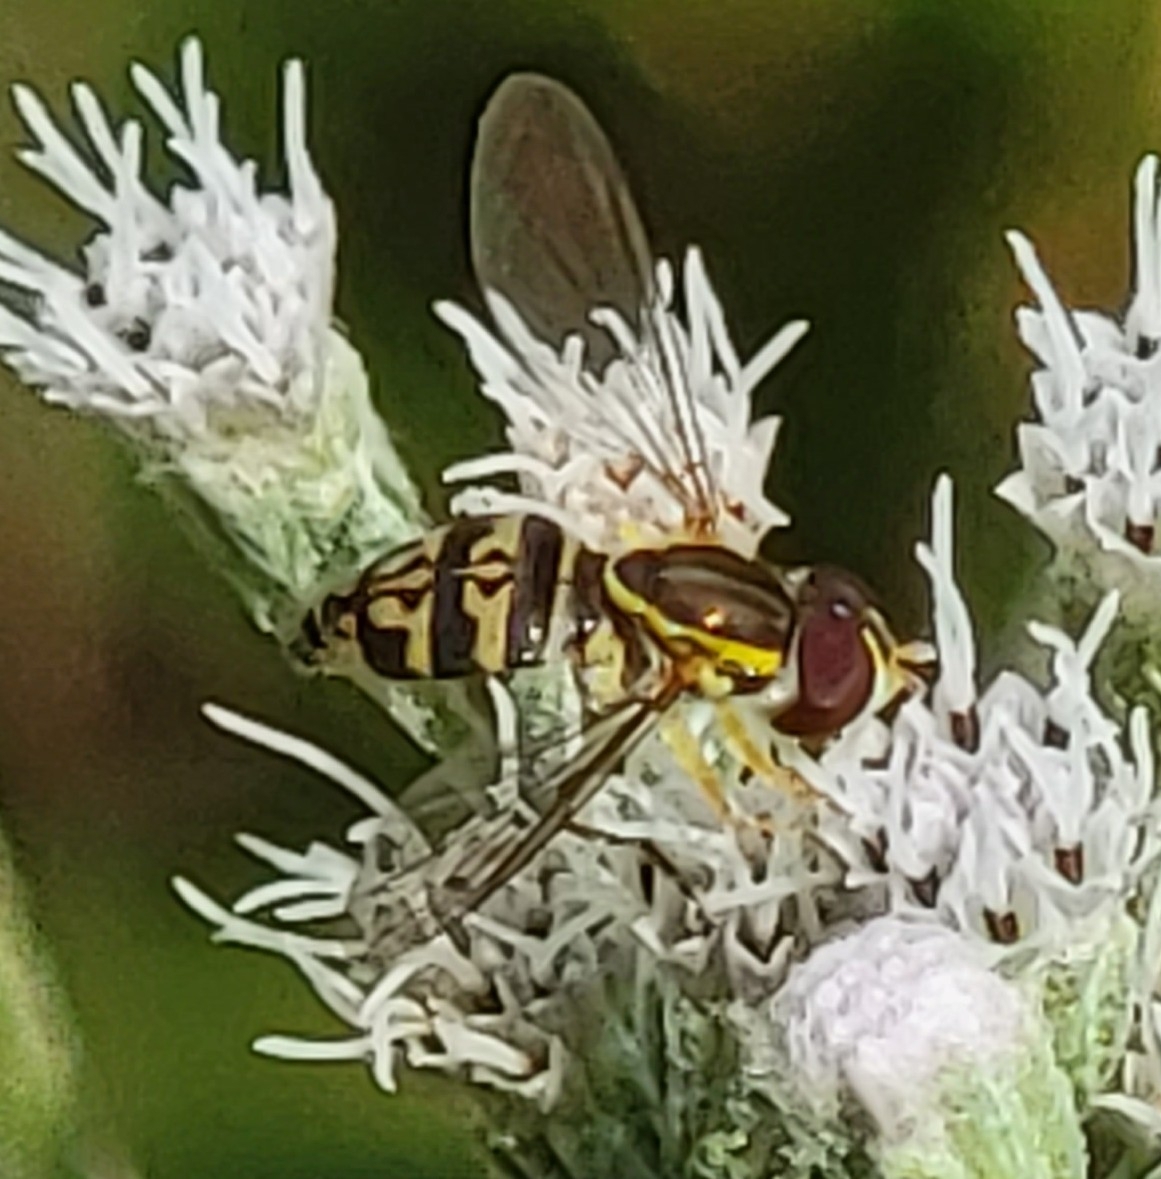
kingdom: Animalia
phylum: Arthropoda
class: Insecta
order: Diptera
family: Syrphidae
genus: Toxomerus
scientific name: Toxomerus geminatus
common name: Eastern calligrapher
